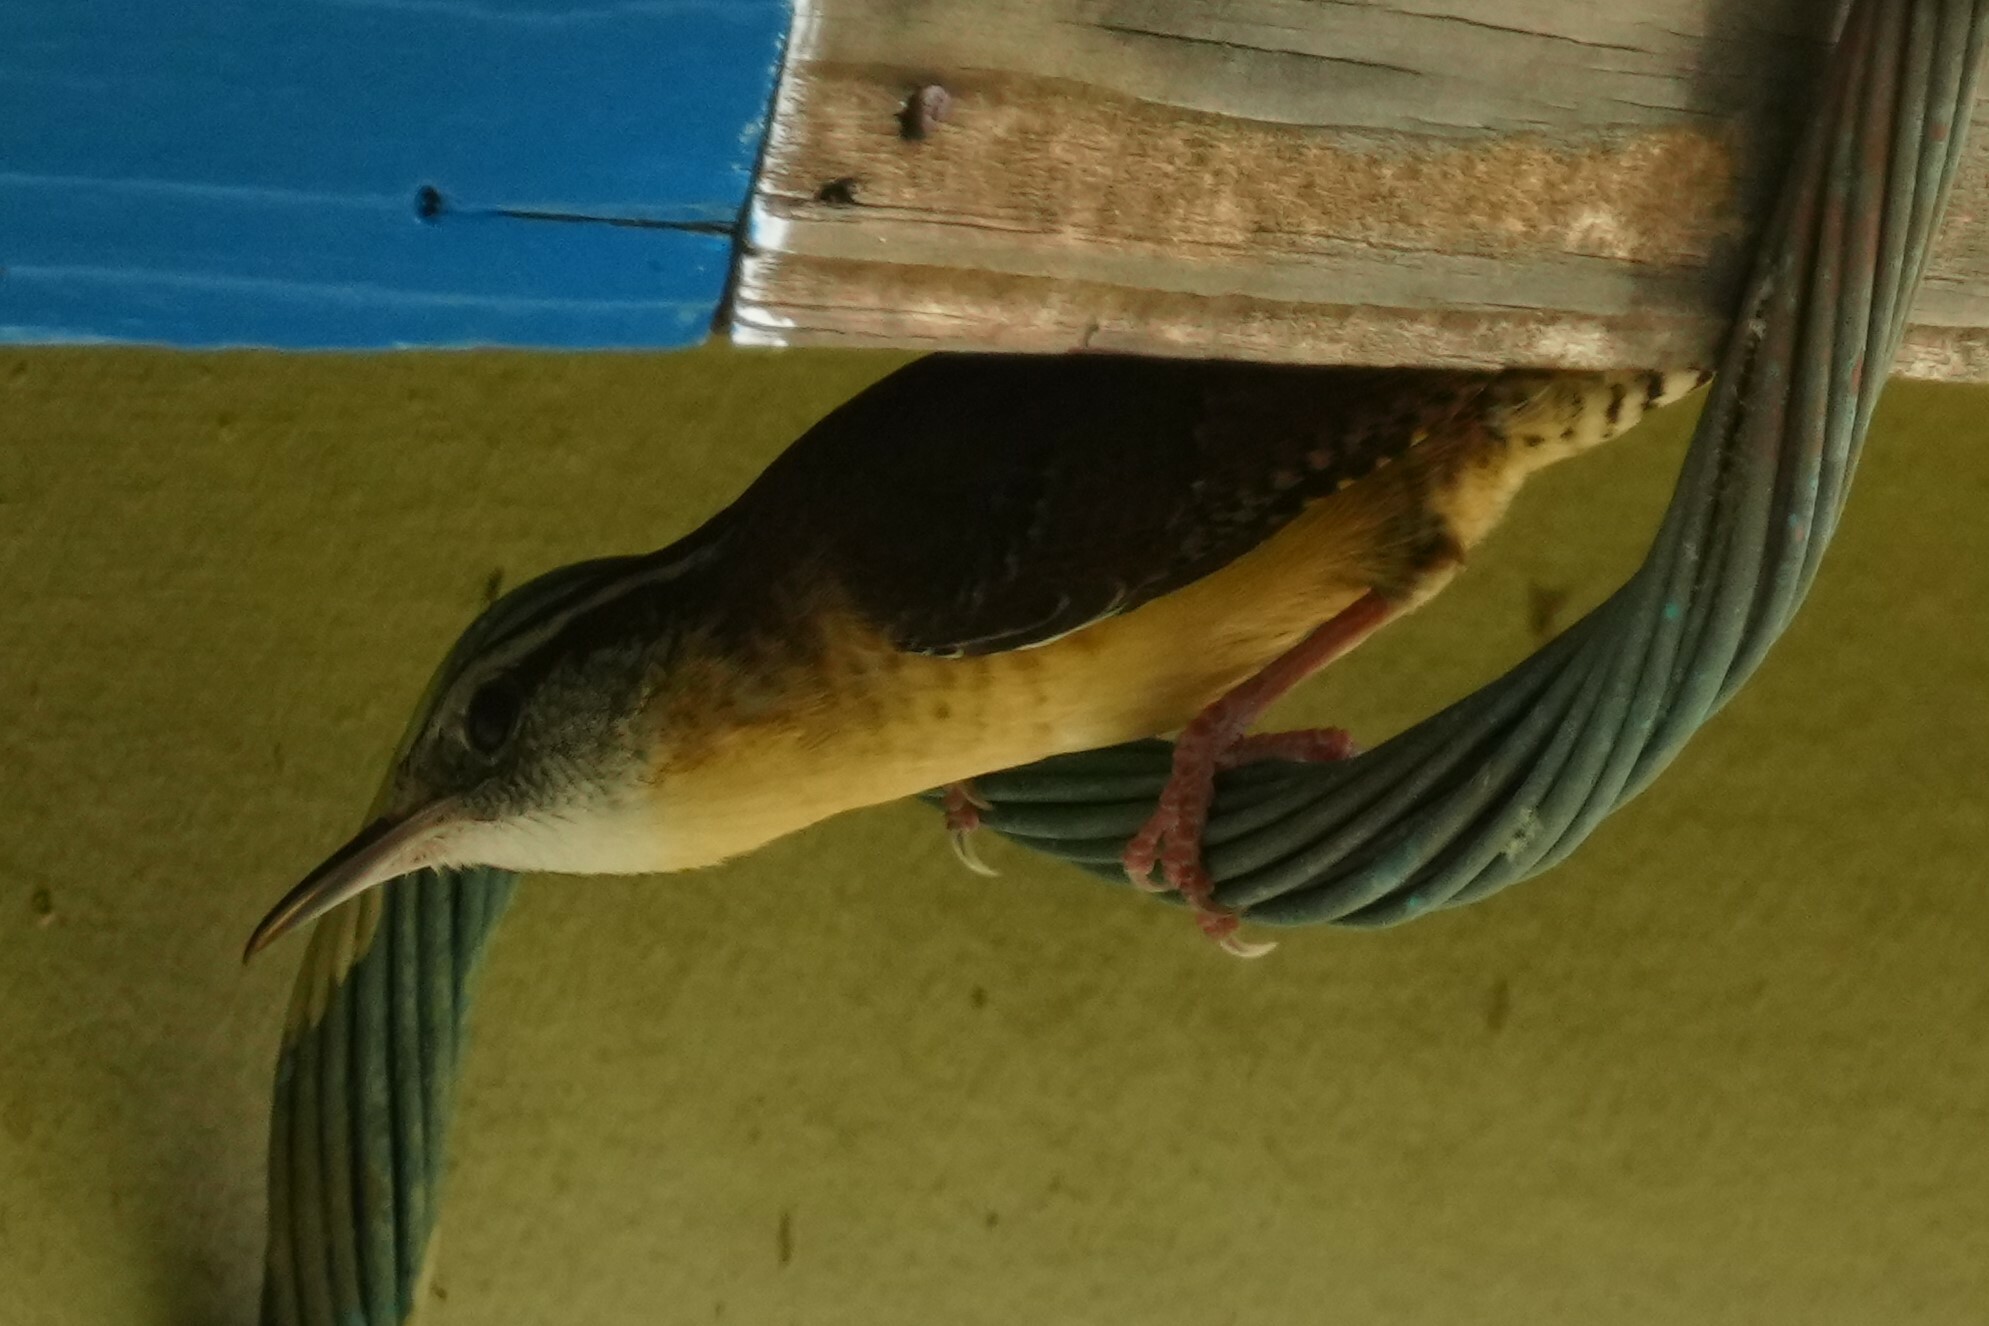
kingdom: Animalia
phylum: Chordata
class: Aves
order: Passeriformes
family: Troglodytidae
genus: Thryothorus
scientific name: Thryothorus ludovicianus
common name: Carolina wren
